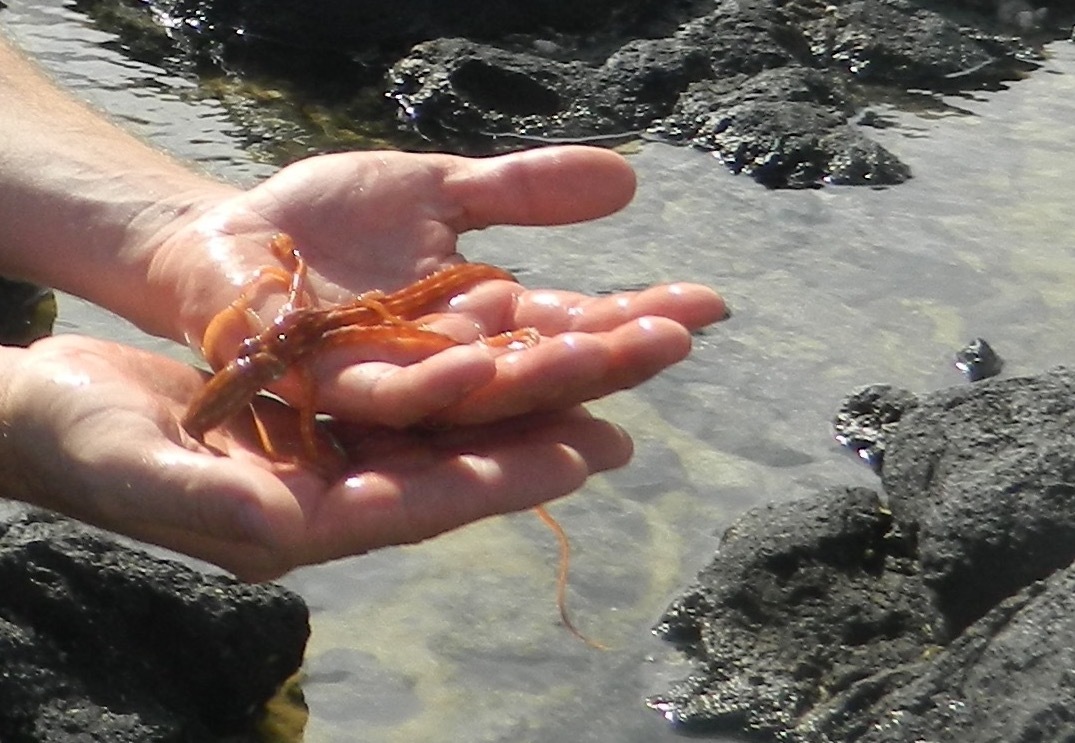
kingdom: Animalia
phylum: Mollusca
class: Cephalopoda
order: Octopoda
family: Octopodidae
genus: Callistoctopus
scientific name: Callistoctopus ornatus
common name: Ornate octopus
